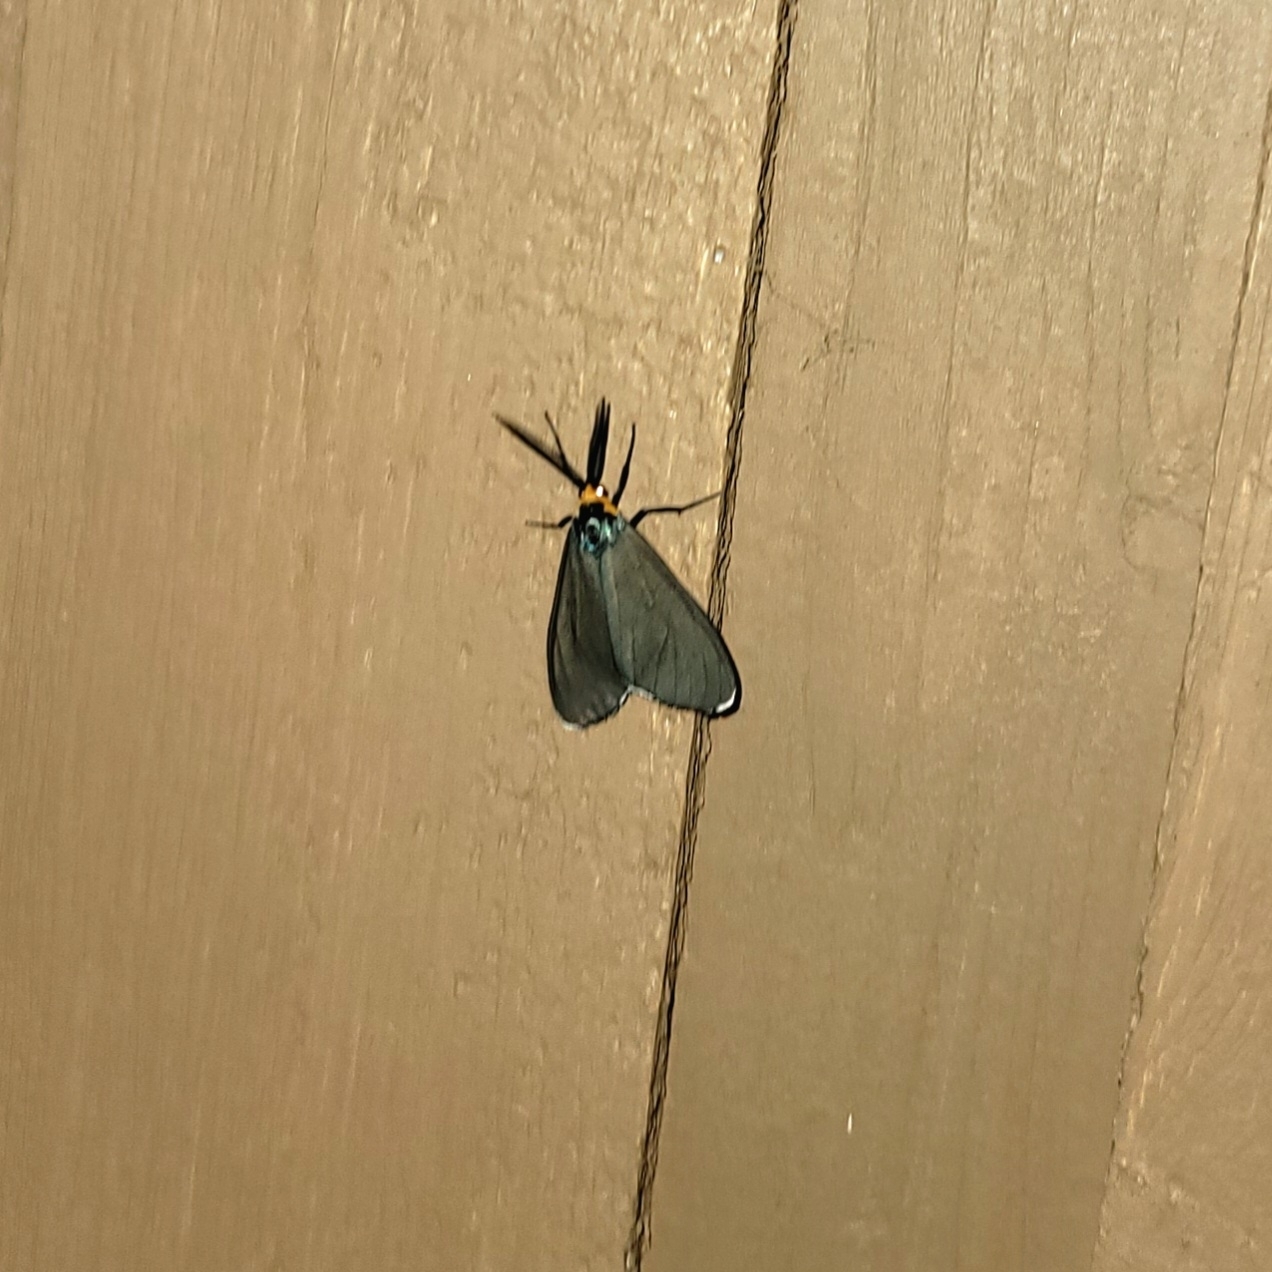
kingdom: Animalia
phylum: Arthropoda
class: Insecta
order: Lepidoptera
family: Erebidae
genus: Ctenucha
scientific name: Ctenucha virginica
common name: Virginia ctenucha moth
